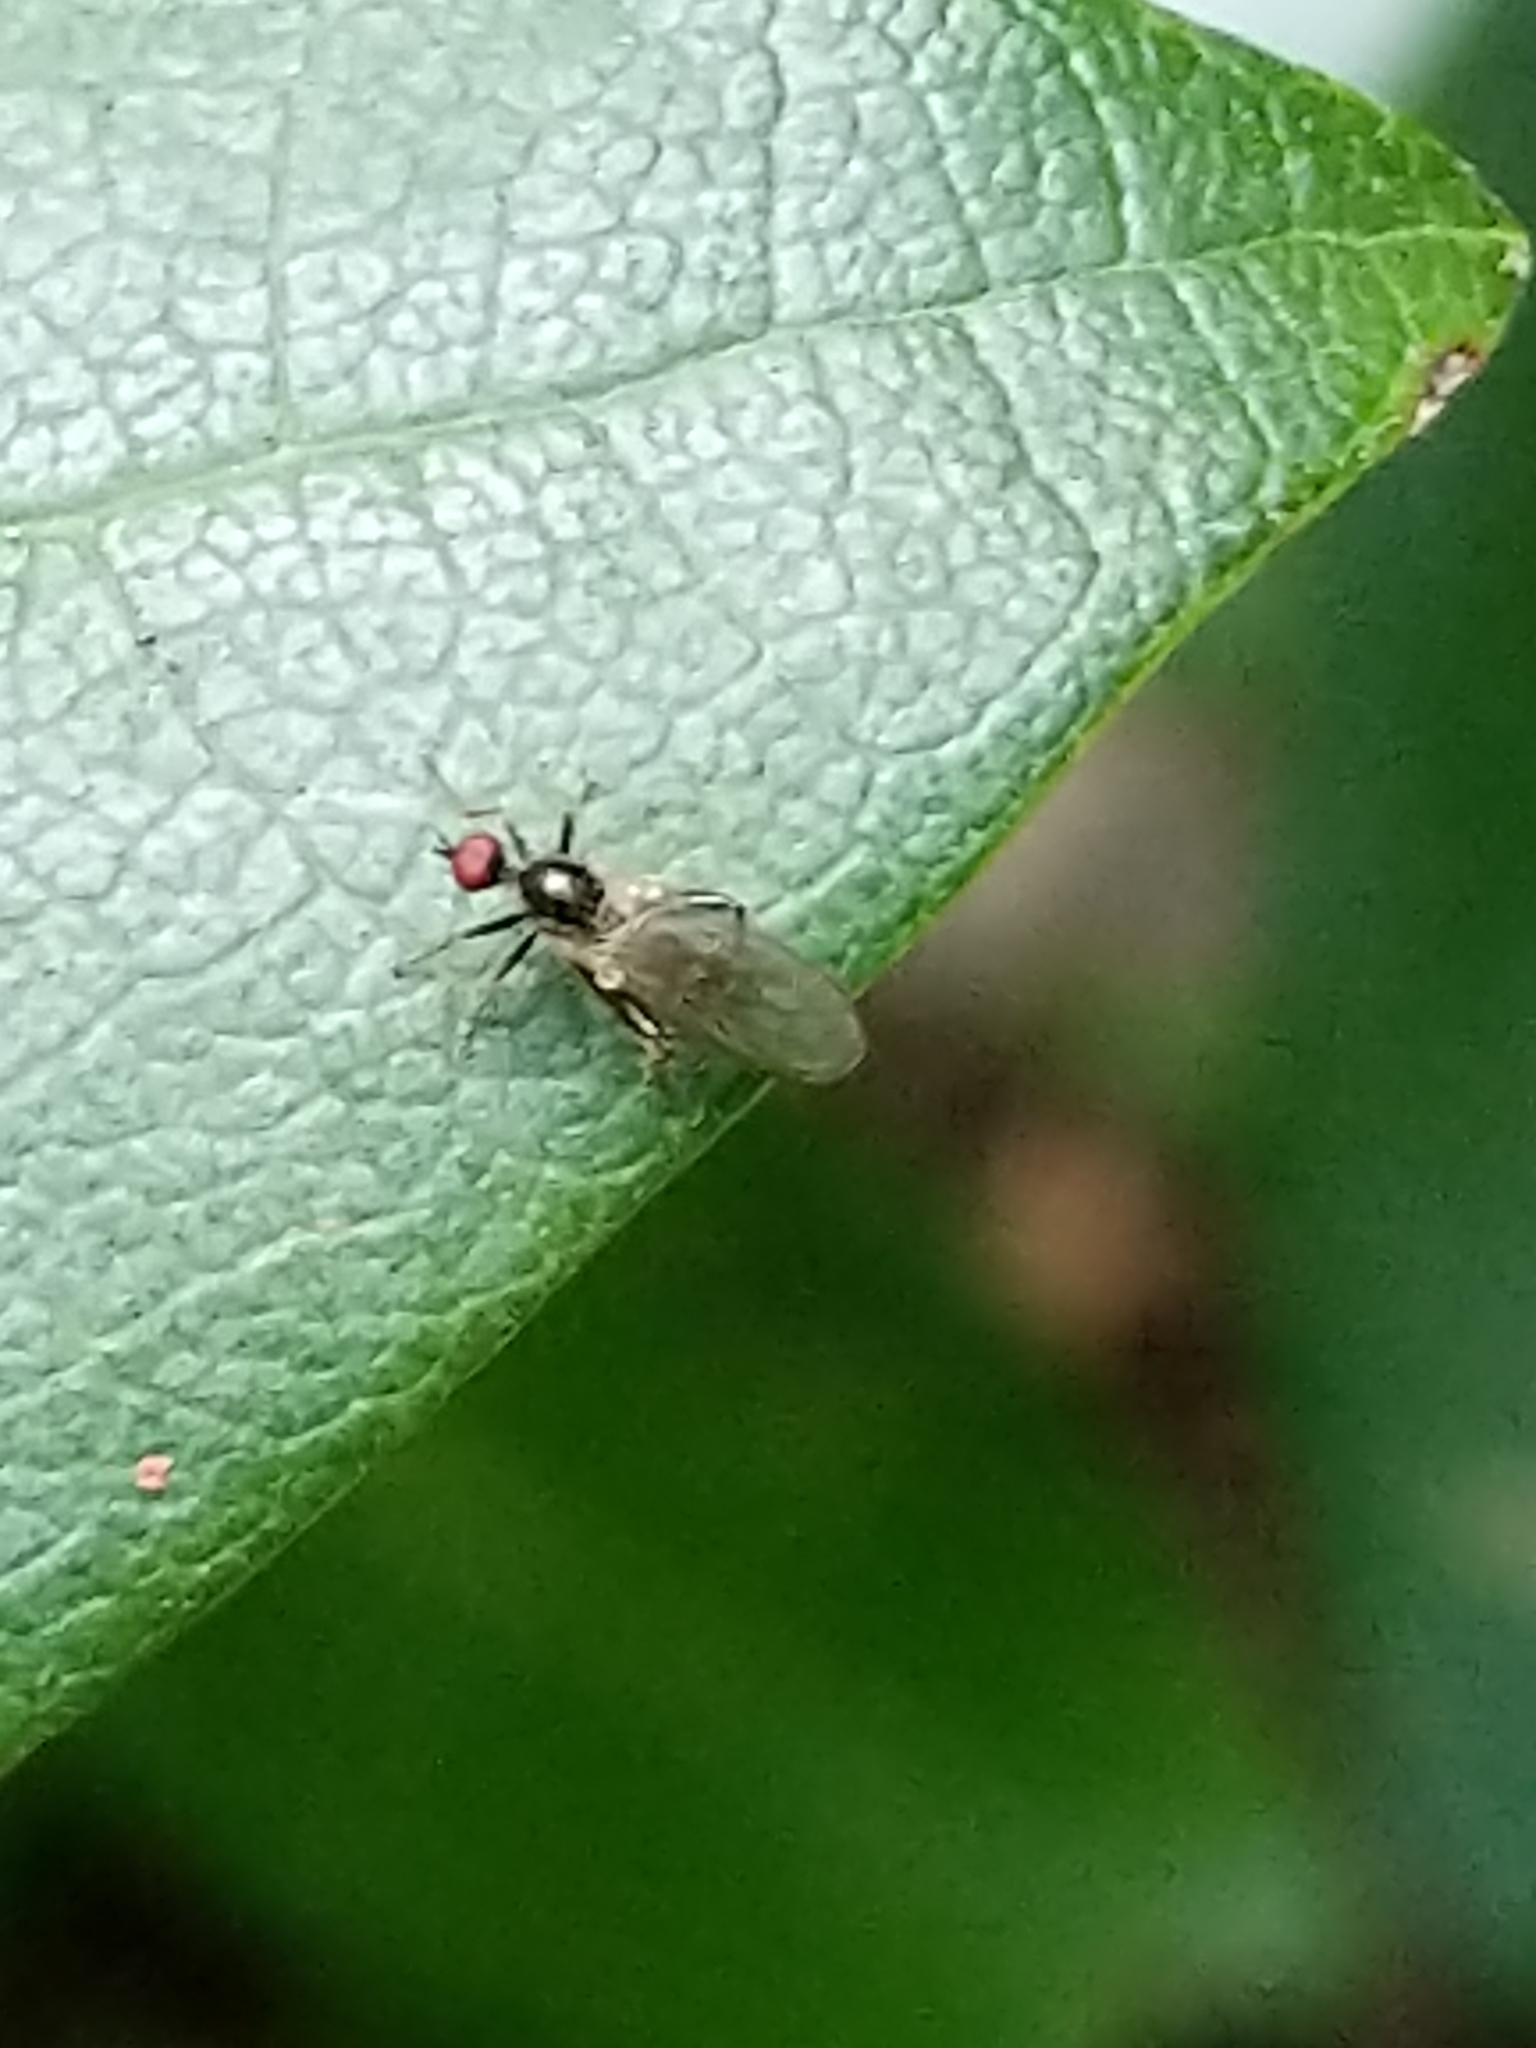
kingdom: Animalia
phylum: Arthropoda
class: Insecta
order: Diptera
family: Hybotidae
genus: Hybos
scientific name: Hybos reversus
